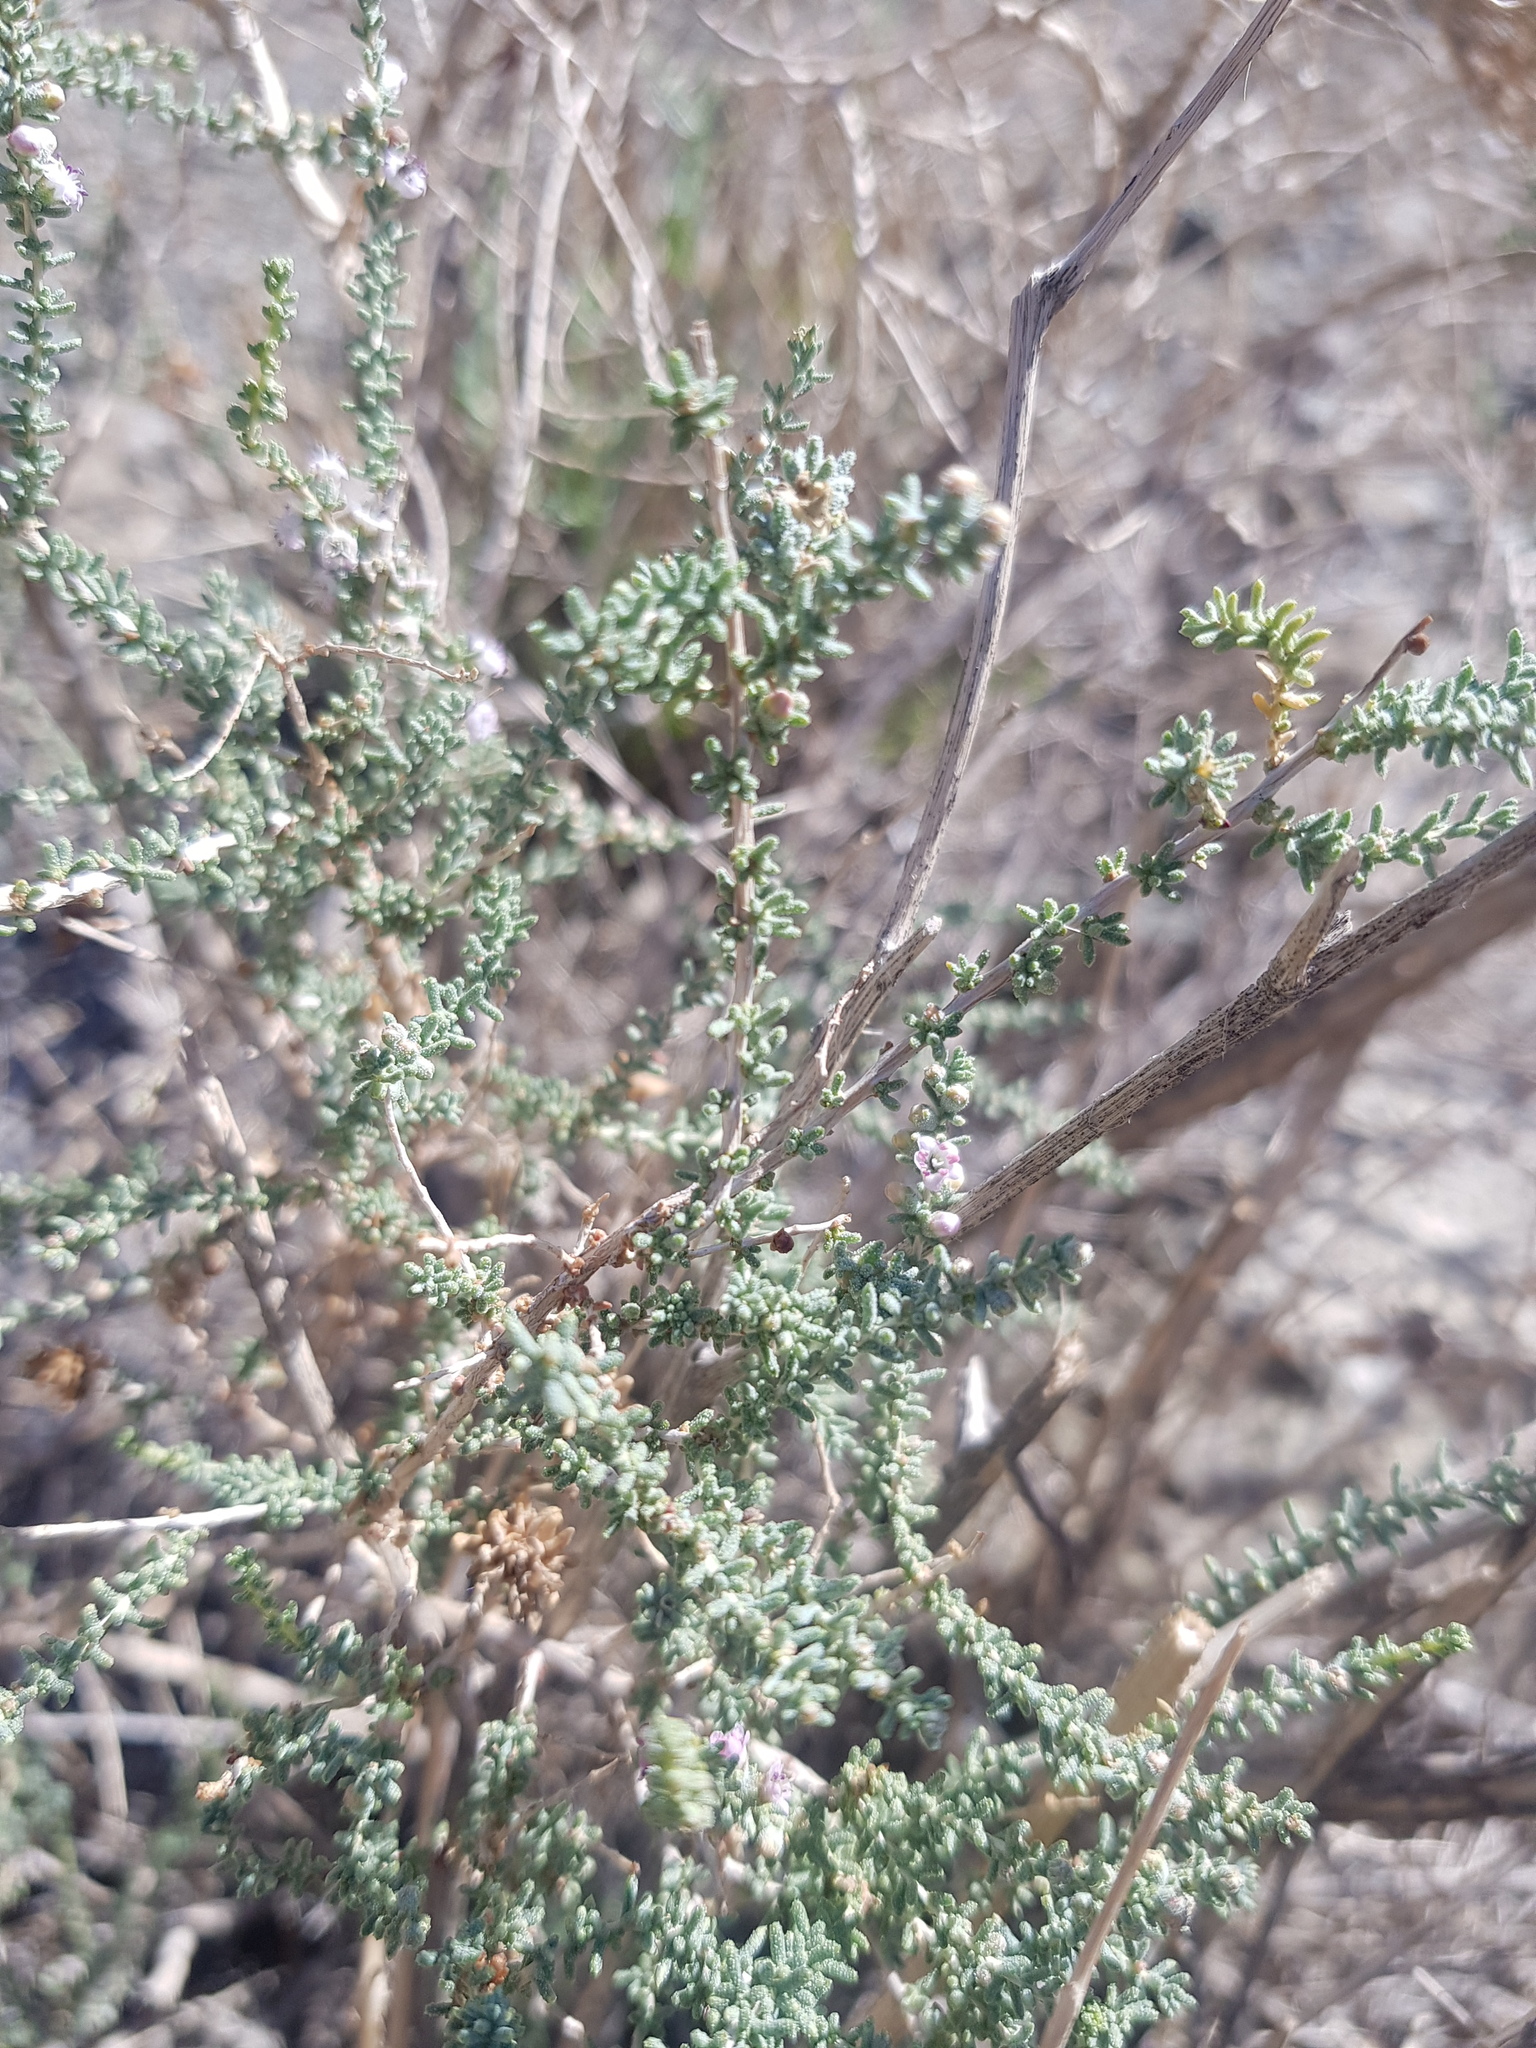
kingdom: Plantae
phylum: Tracheophyta
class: Magnoliopsida
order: Caryophyllales
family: Tamaricaceae
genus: Reaumuria
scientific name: Reaumuria songarica
